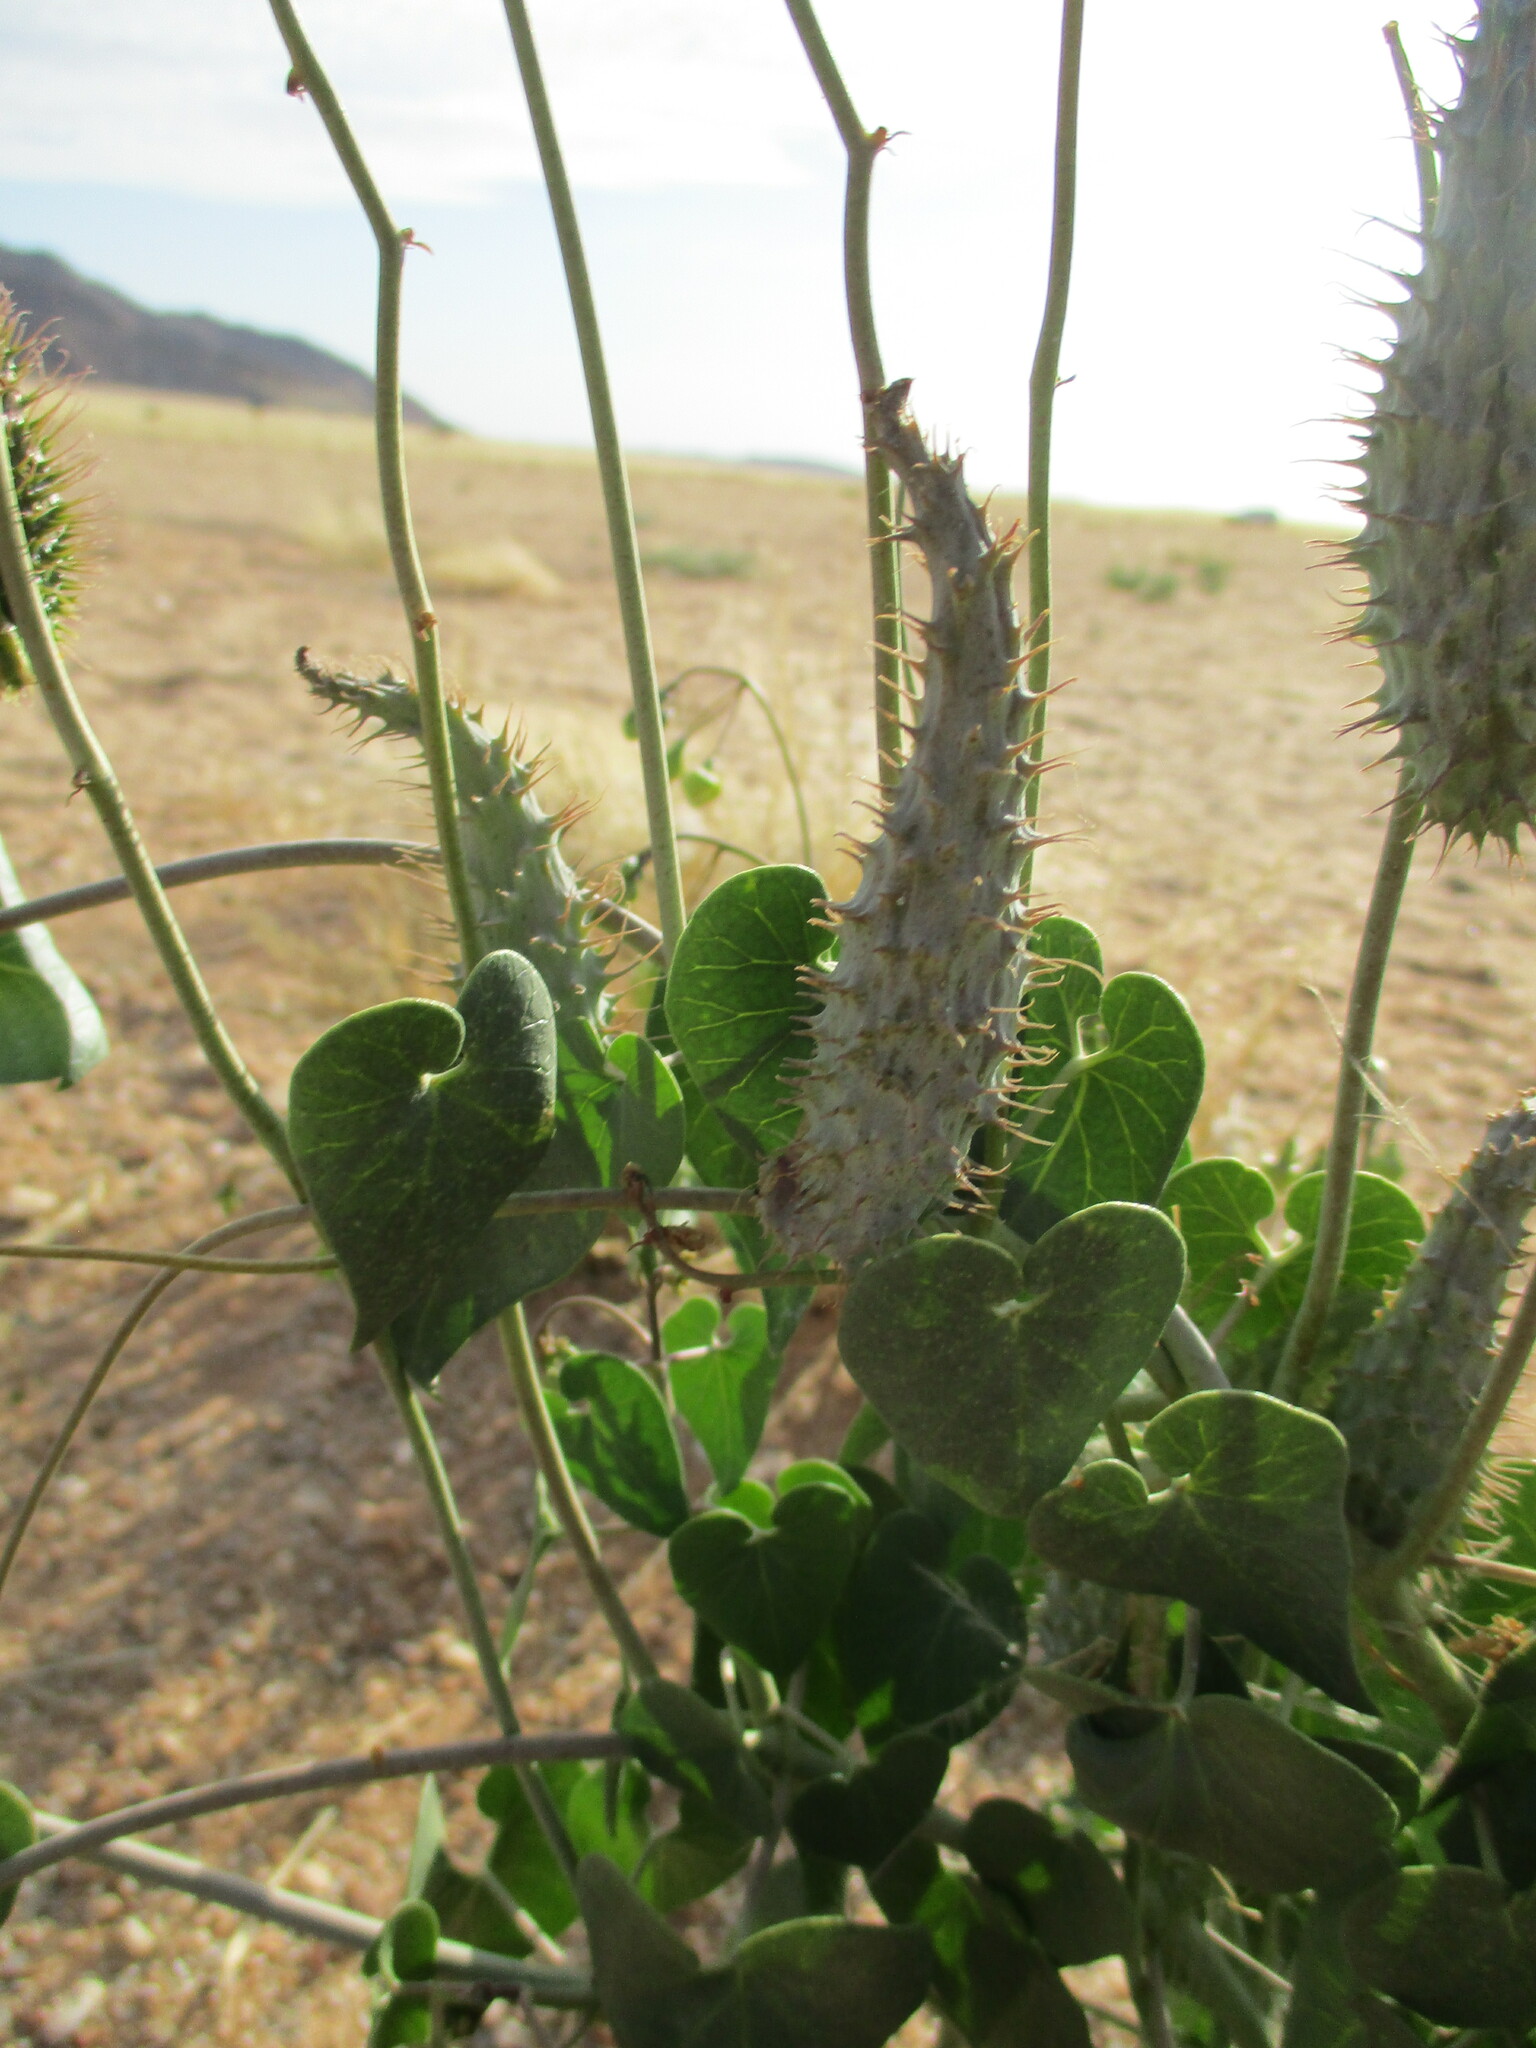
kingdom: Plantae
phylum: Tracheophyta
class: Magnoliopsida
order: Gentianales
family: Apocynaceae
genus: Pergularia
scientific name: Pergularia daemia
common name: Trellis-vine
